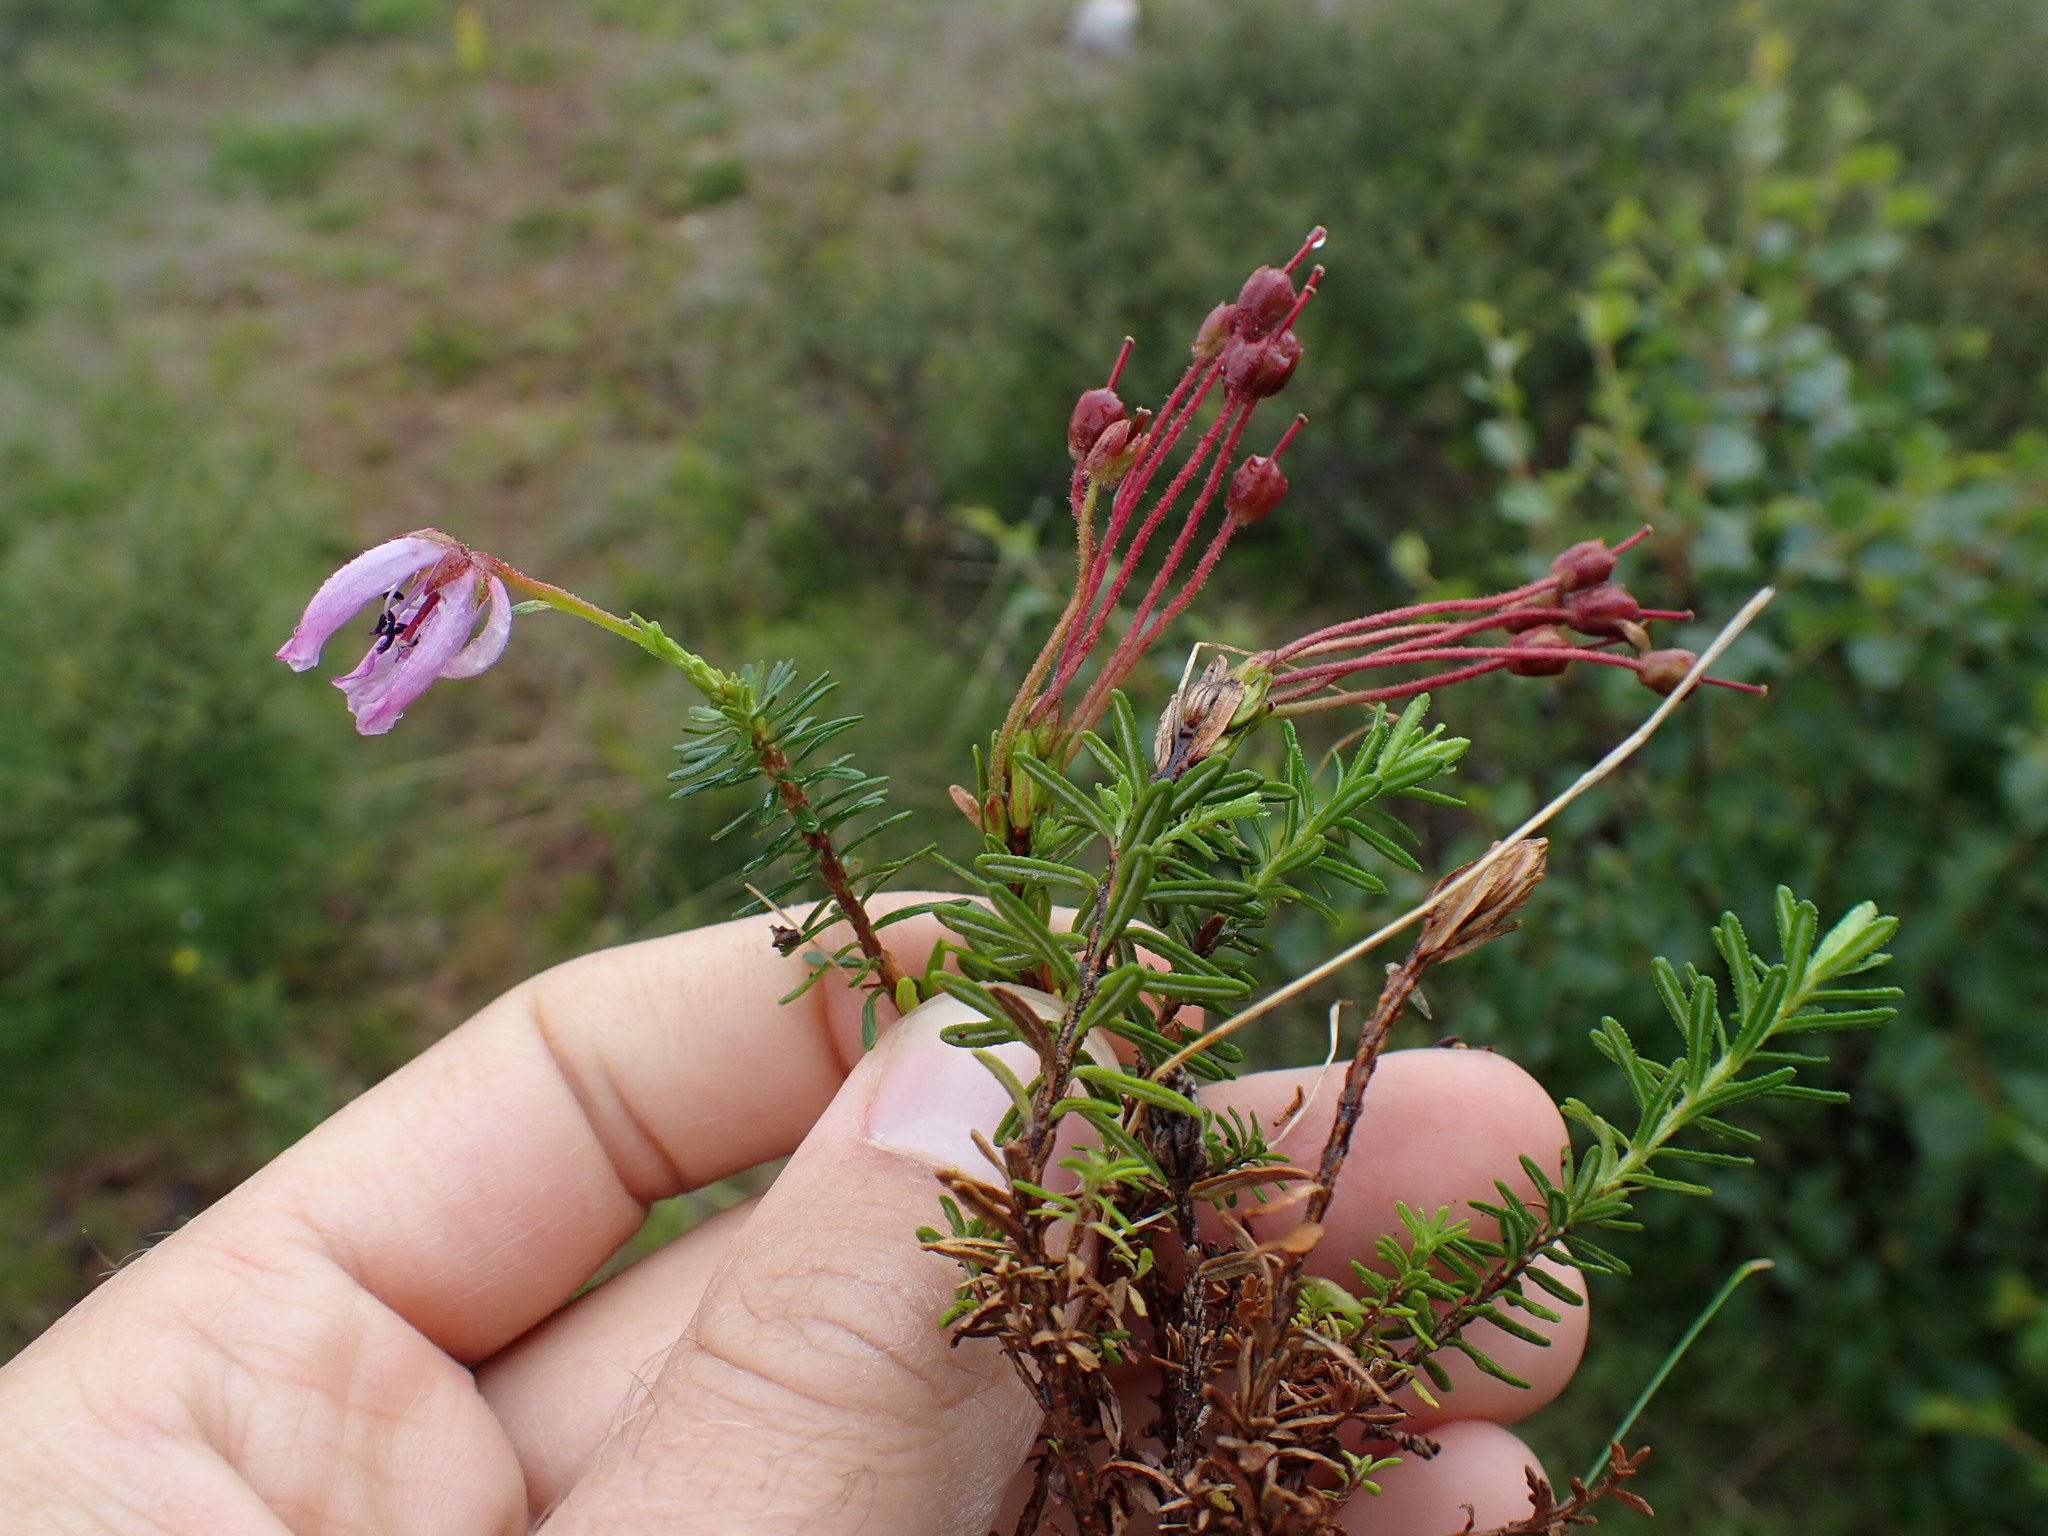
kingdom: Plantae
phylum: Tracheophyta
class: Magnoliopsida
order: Ericales
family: Ericaceae
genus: Phyllodoce
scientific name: Phyllodoce caerulea
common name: Blue heath
